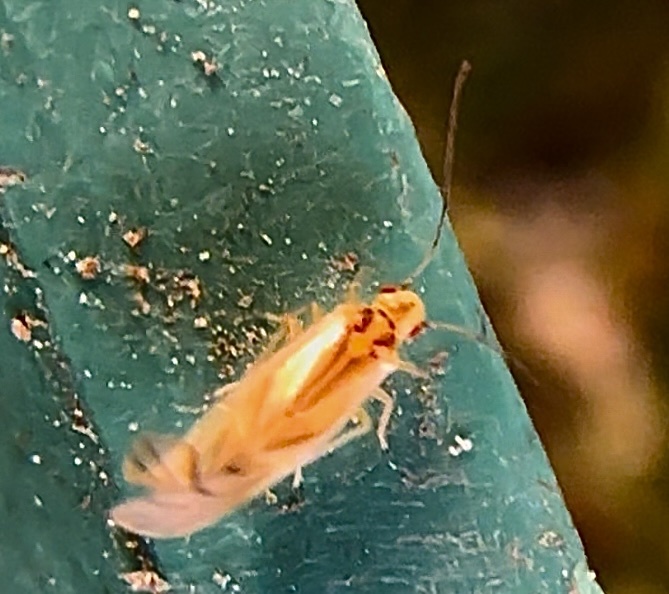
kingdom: Animalia
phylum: Arthropoda
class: Insecta
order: Psocodea
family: Caeciliusidae
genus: Valenzuela
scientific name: Valenzuela flavidus
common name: Yellow barklouse
